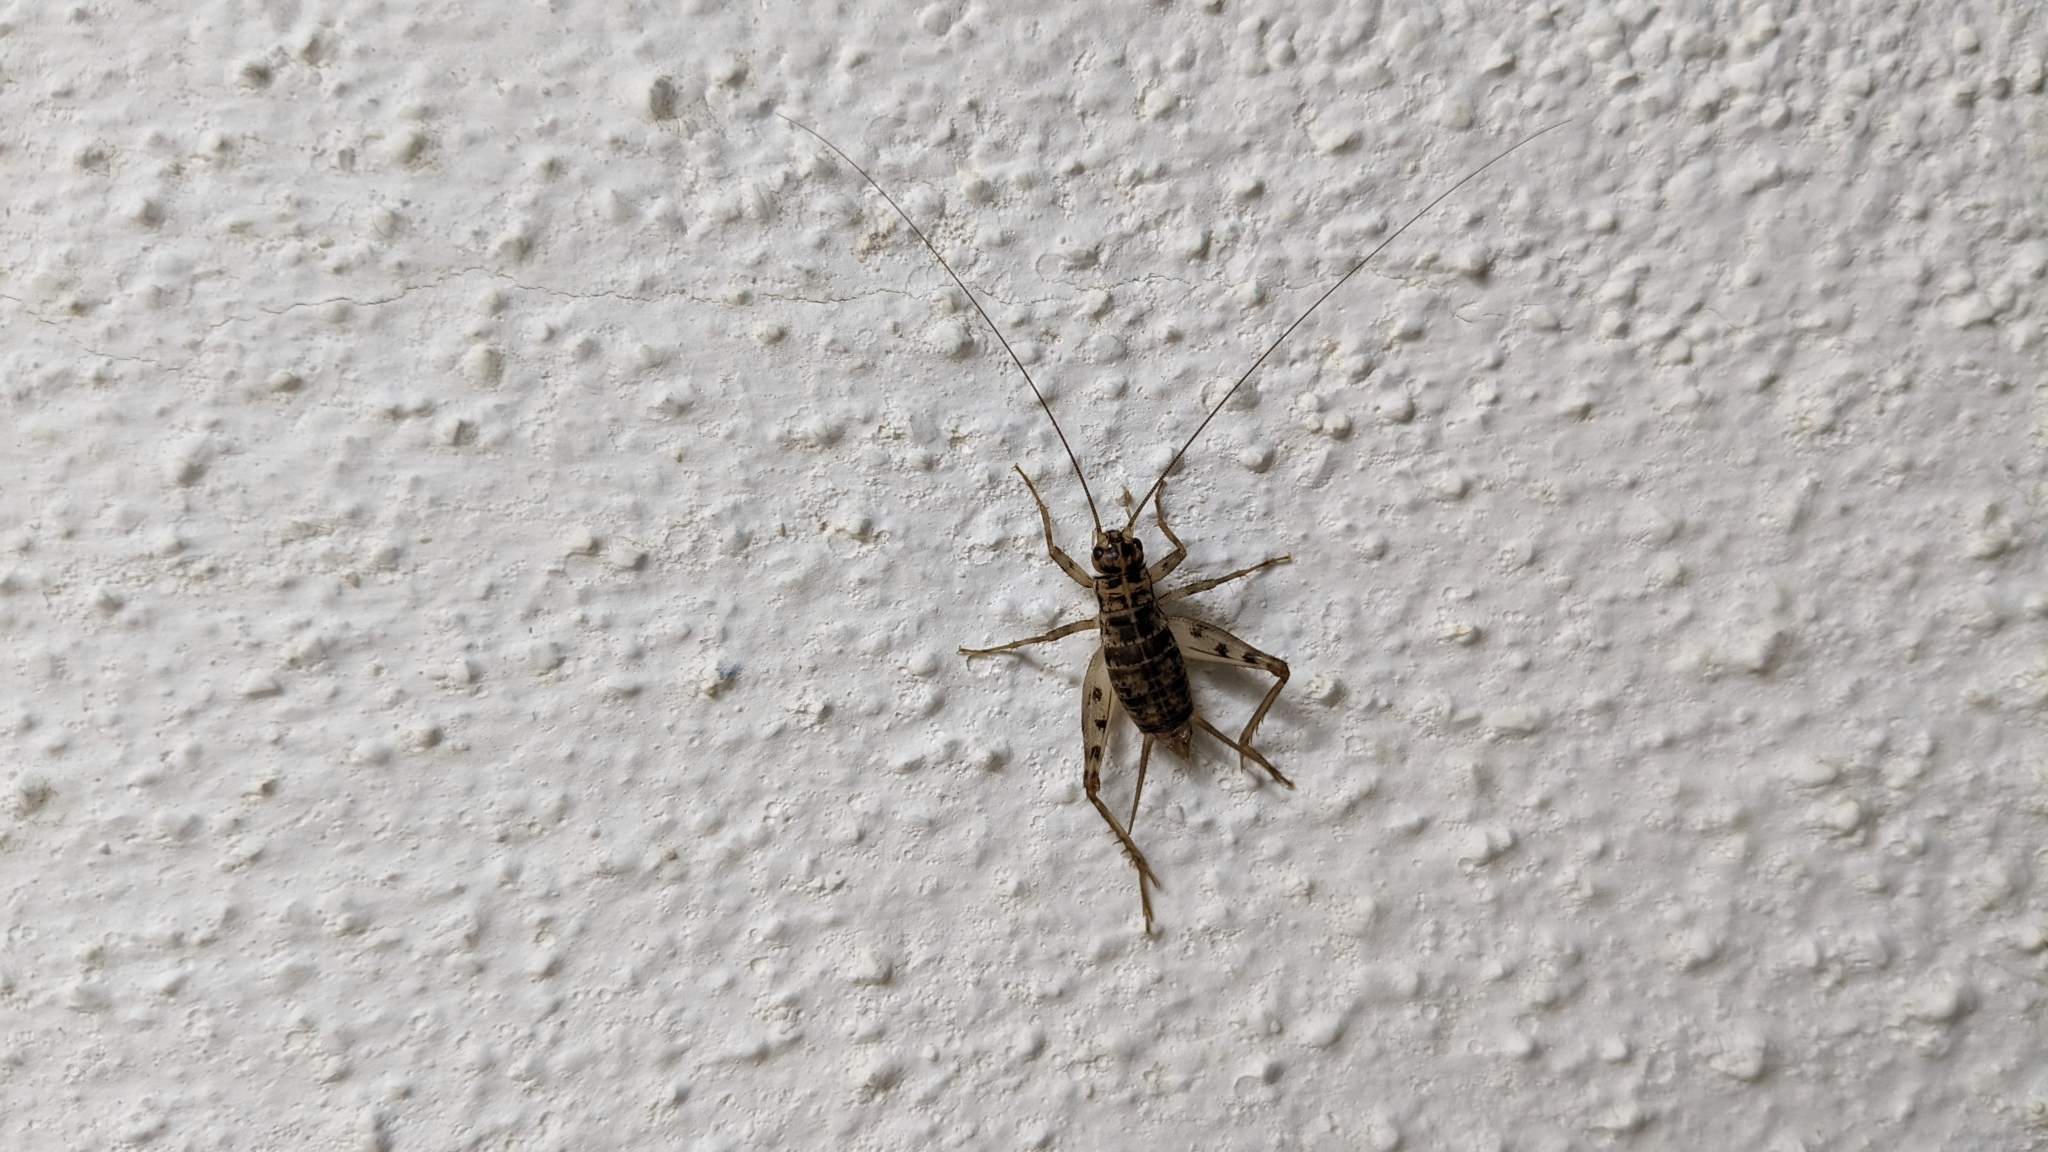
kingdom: Animalia
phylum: Arthropoda
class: Insecta
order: Orthoptera
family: Gryllidae
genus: Gryllomorpha
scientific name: Gryllomorpha dalmatina
